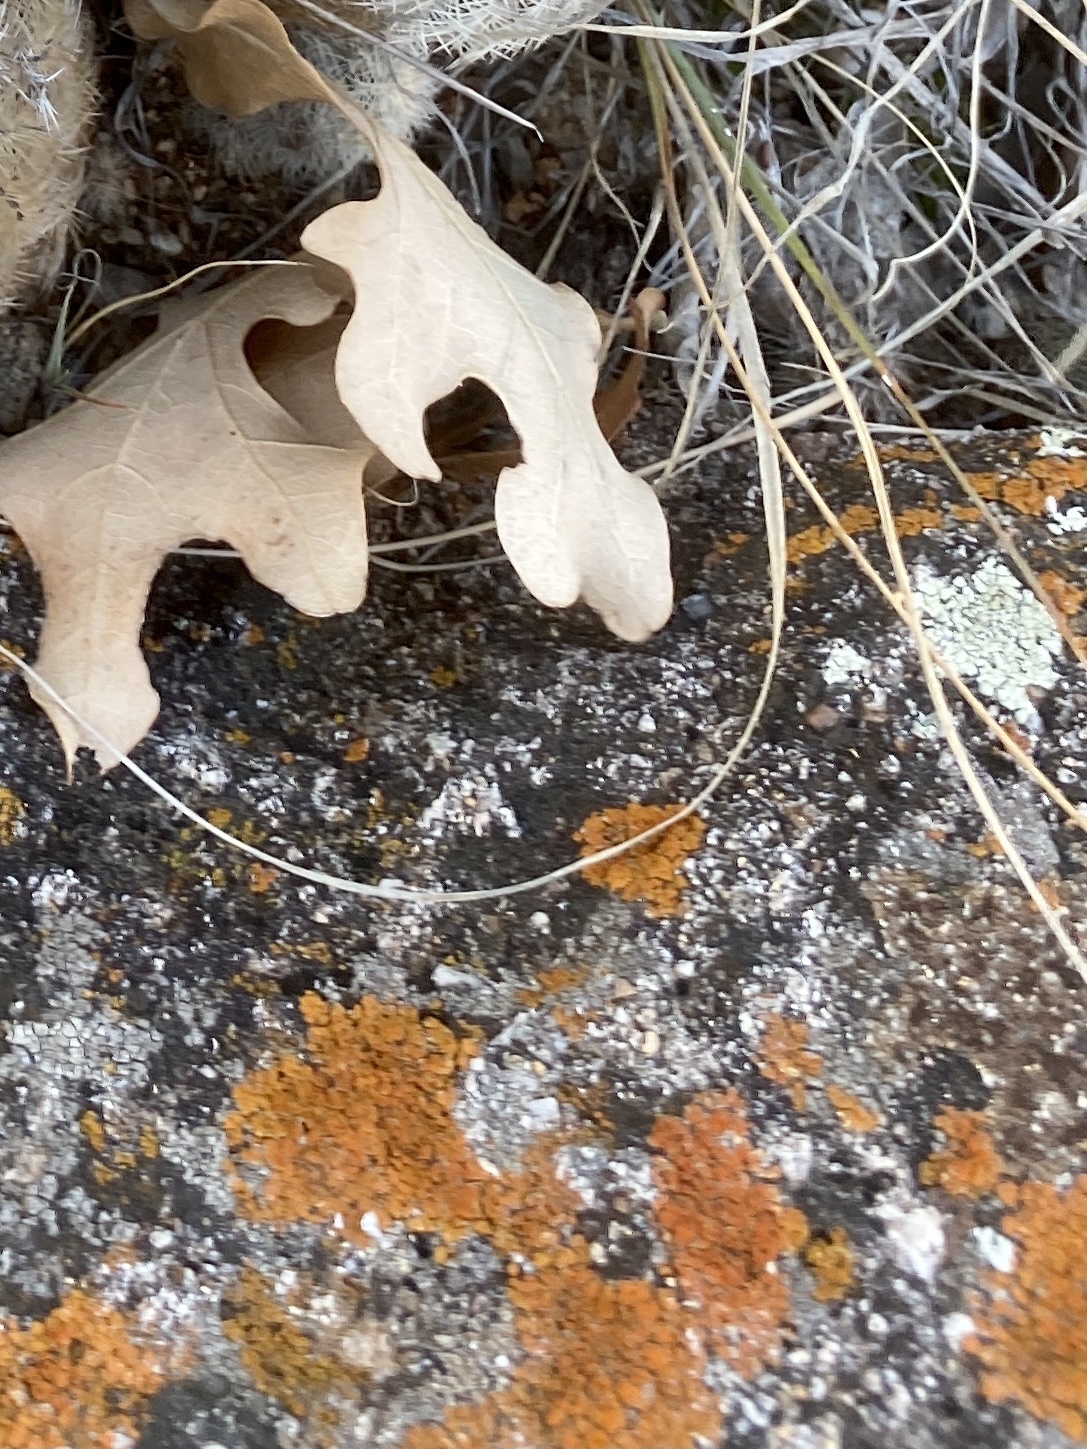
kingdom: Fungi
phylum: Ascomycota
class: Lecanoromycetes
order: Teloschistales
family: Teloschistaceae
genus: Xanthoria
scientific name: Xanthoria elegans
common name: Elegant sunburst lichen
